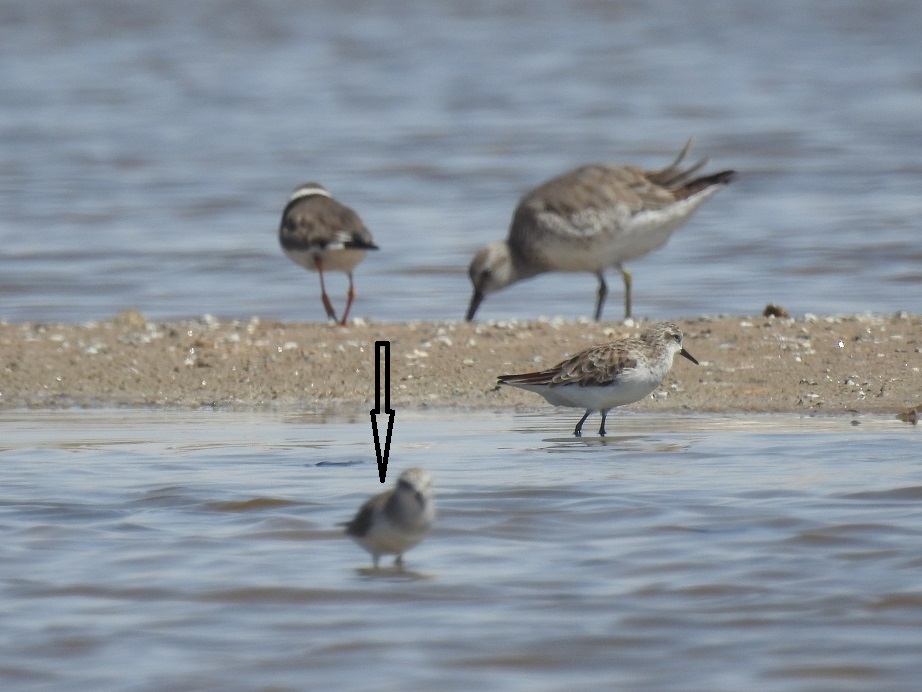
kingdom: Animalia
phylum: Chordata
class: Aves
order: Charadriiformes
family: Scolopacidae
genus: Calidris
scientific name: Calidris minuta
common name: Little stint
